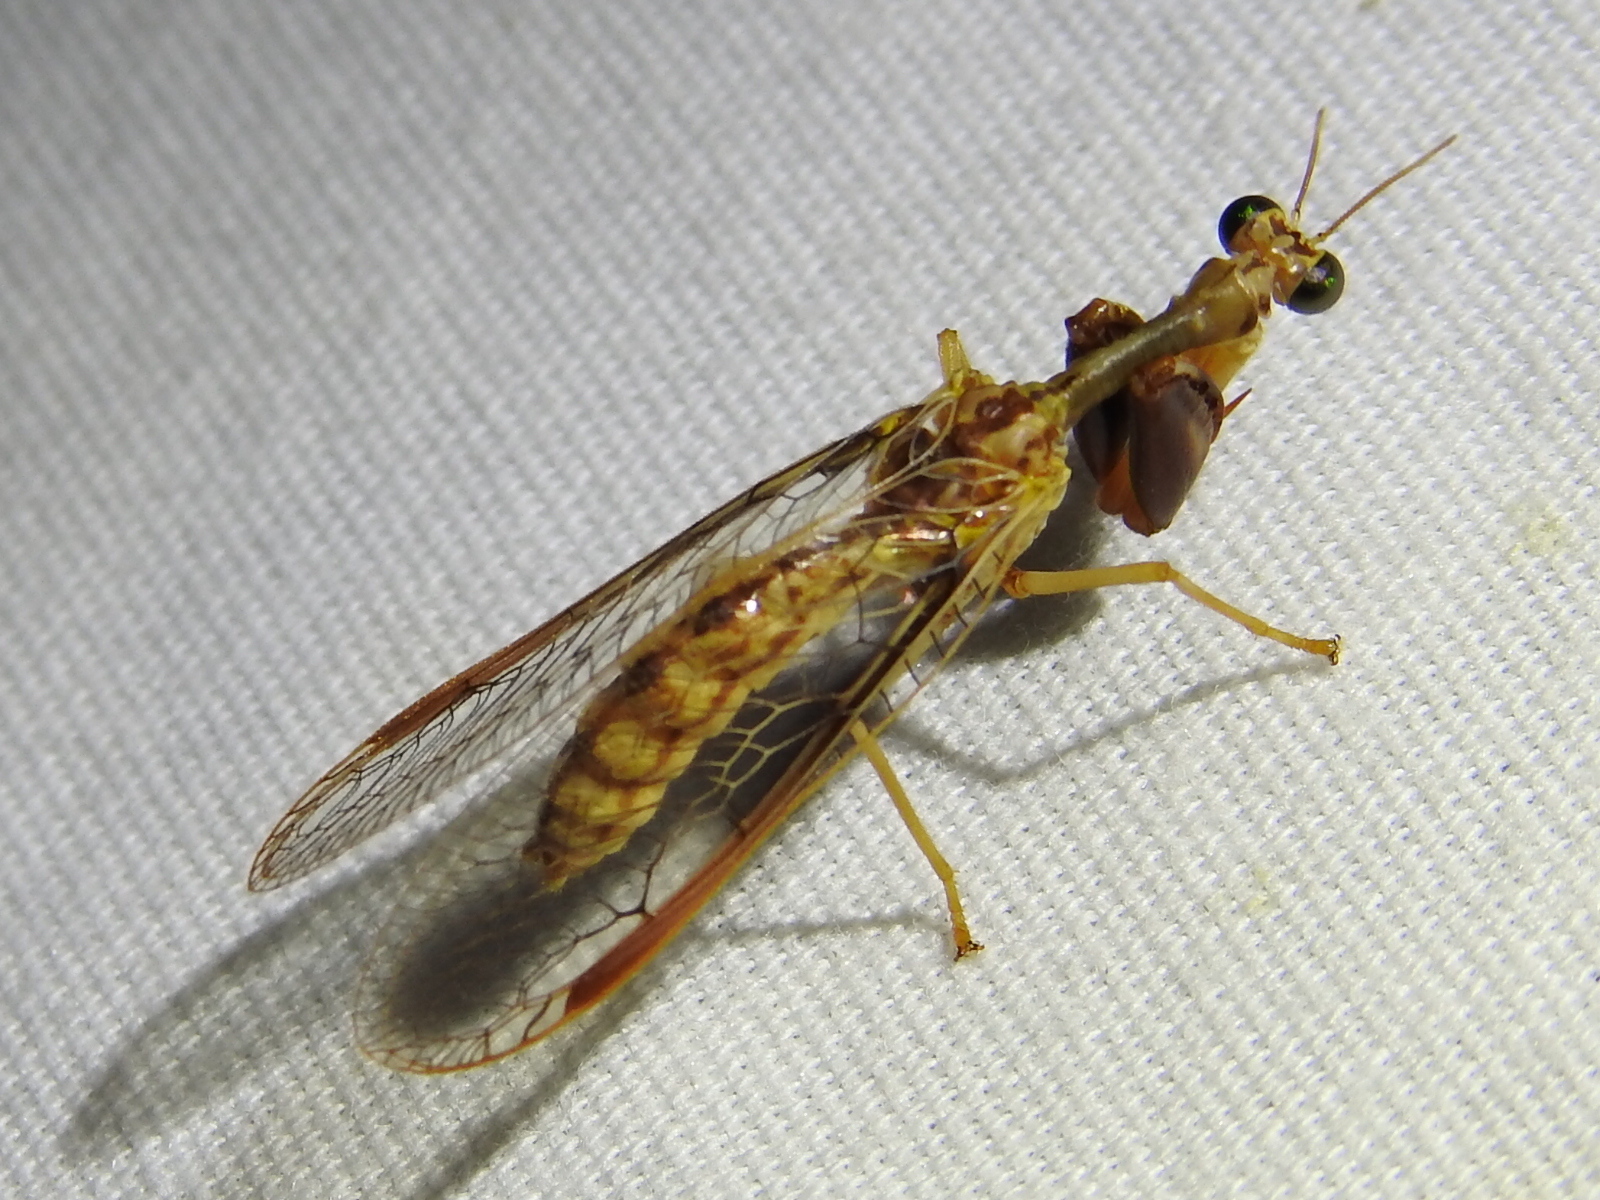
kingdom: Animalia
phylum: Arthropoda
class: Insecta
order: Neuroptera
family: Mantispidae
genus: Dicromantispa
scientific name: Dicromantispa sayi
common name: Say's mantidfly
